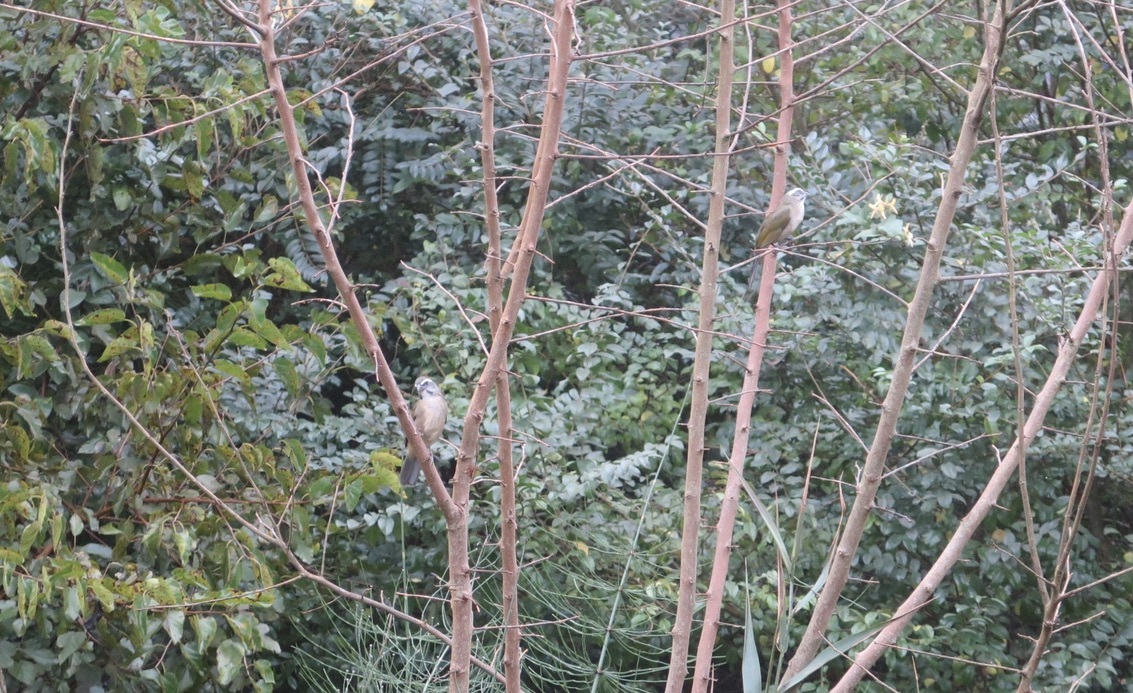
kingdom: Animalia
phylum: Chordata
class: Aves
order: Passeriformes
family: Thraupidae
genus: Saltator
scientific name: Saltator similis
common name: Green-winged saltator
